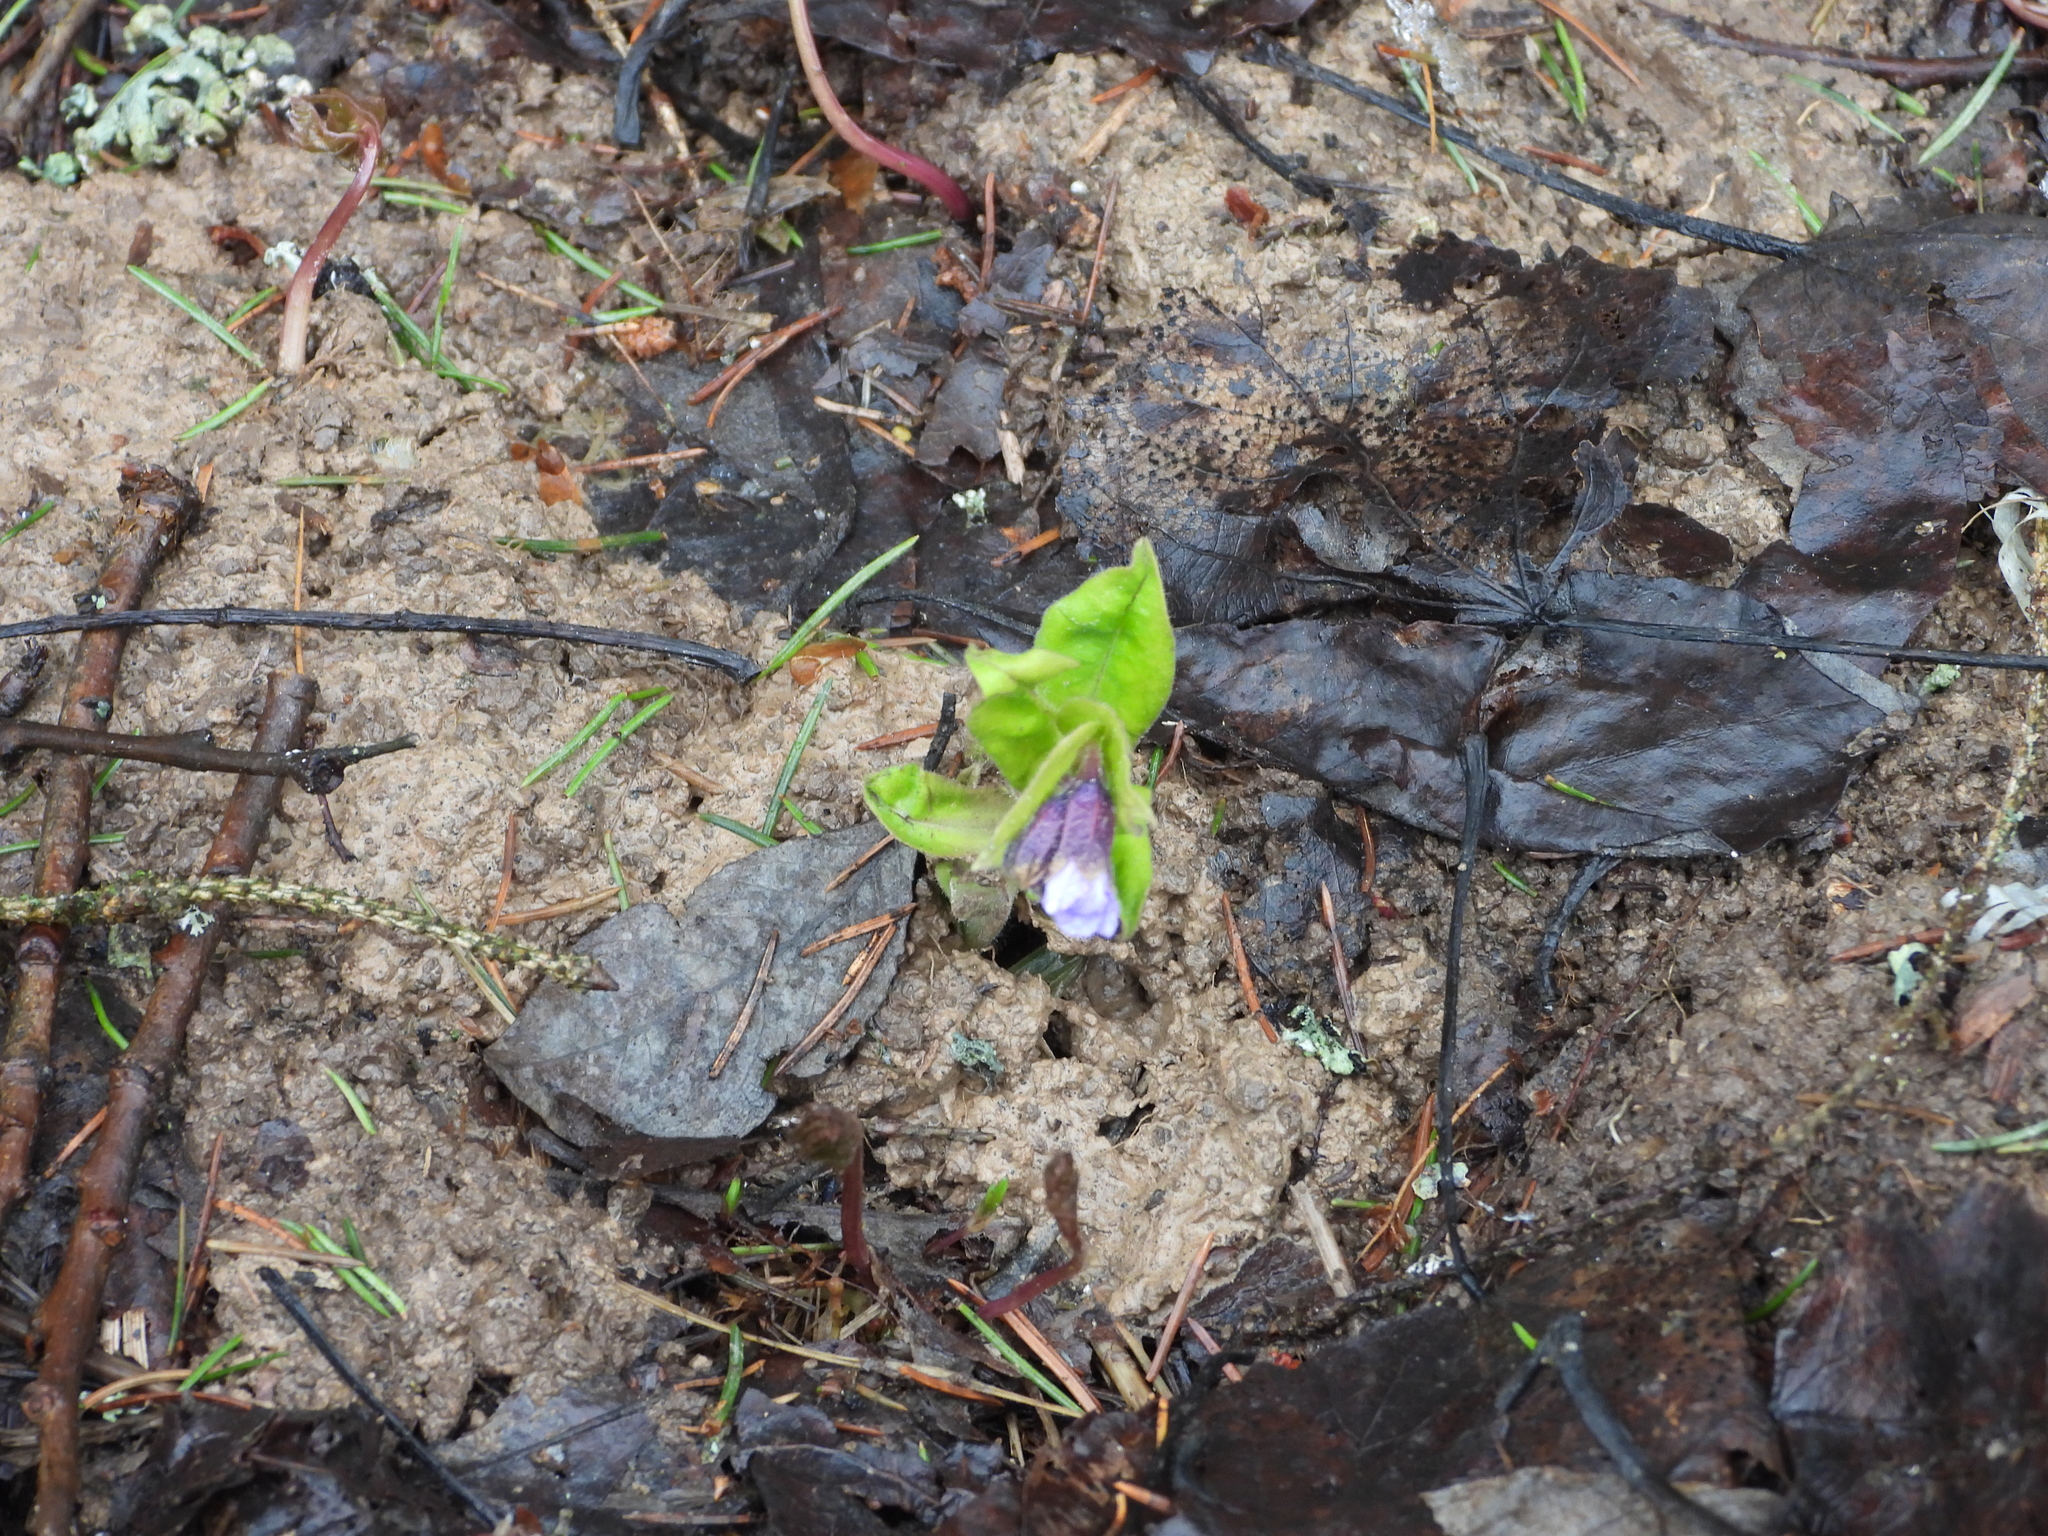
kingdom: Plantae
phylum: Tracheophyta
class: Magnoliopsida
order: Boraginales
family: Boraginaceae
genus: Pulmonaria
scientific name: Pulmonaria mollis
